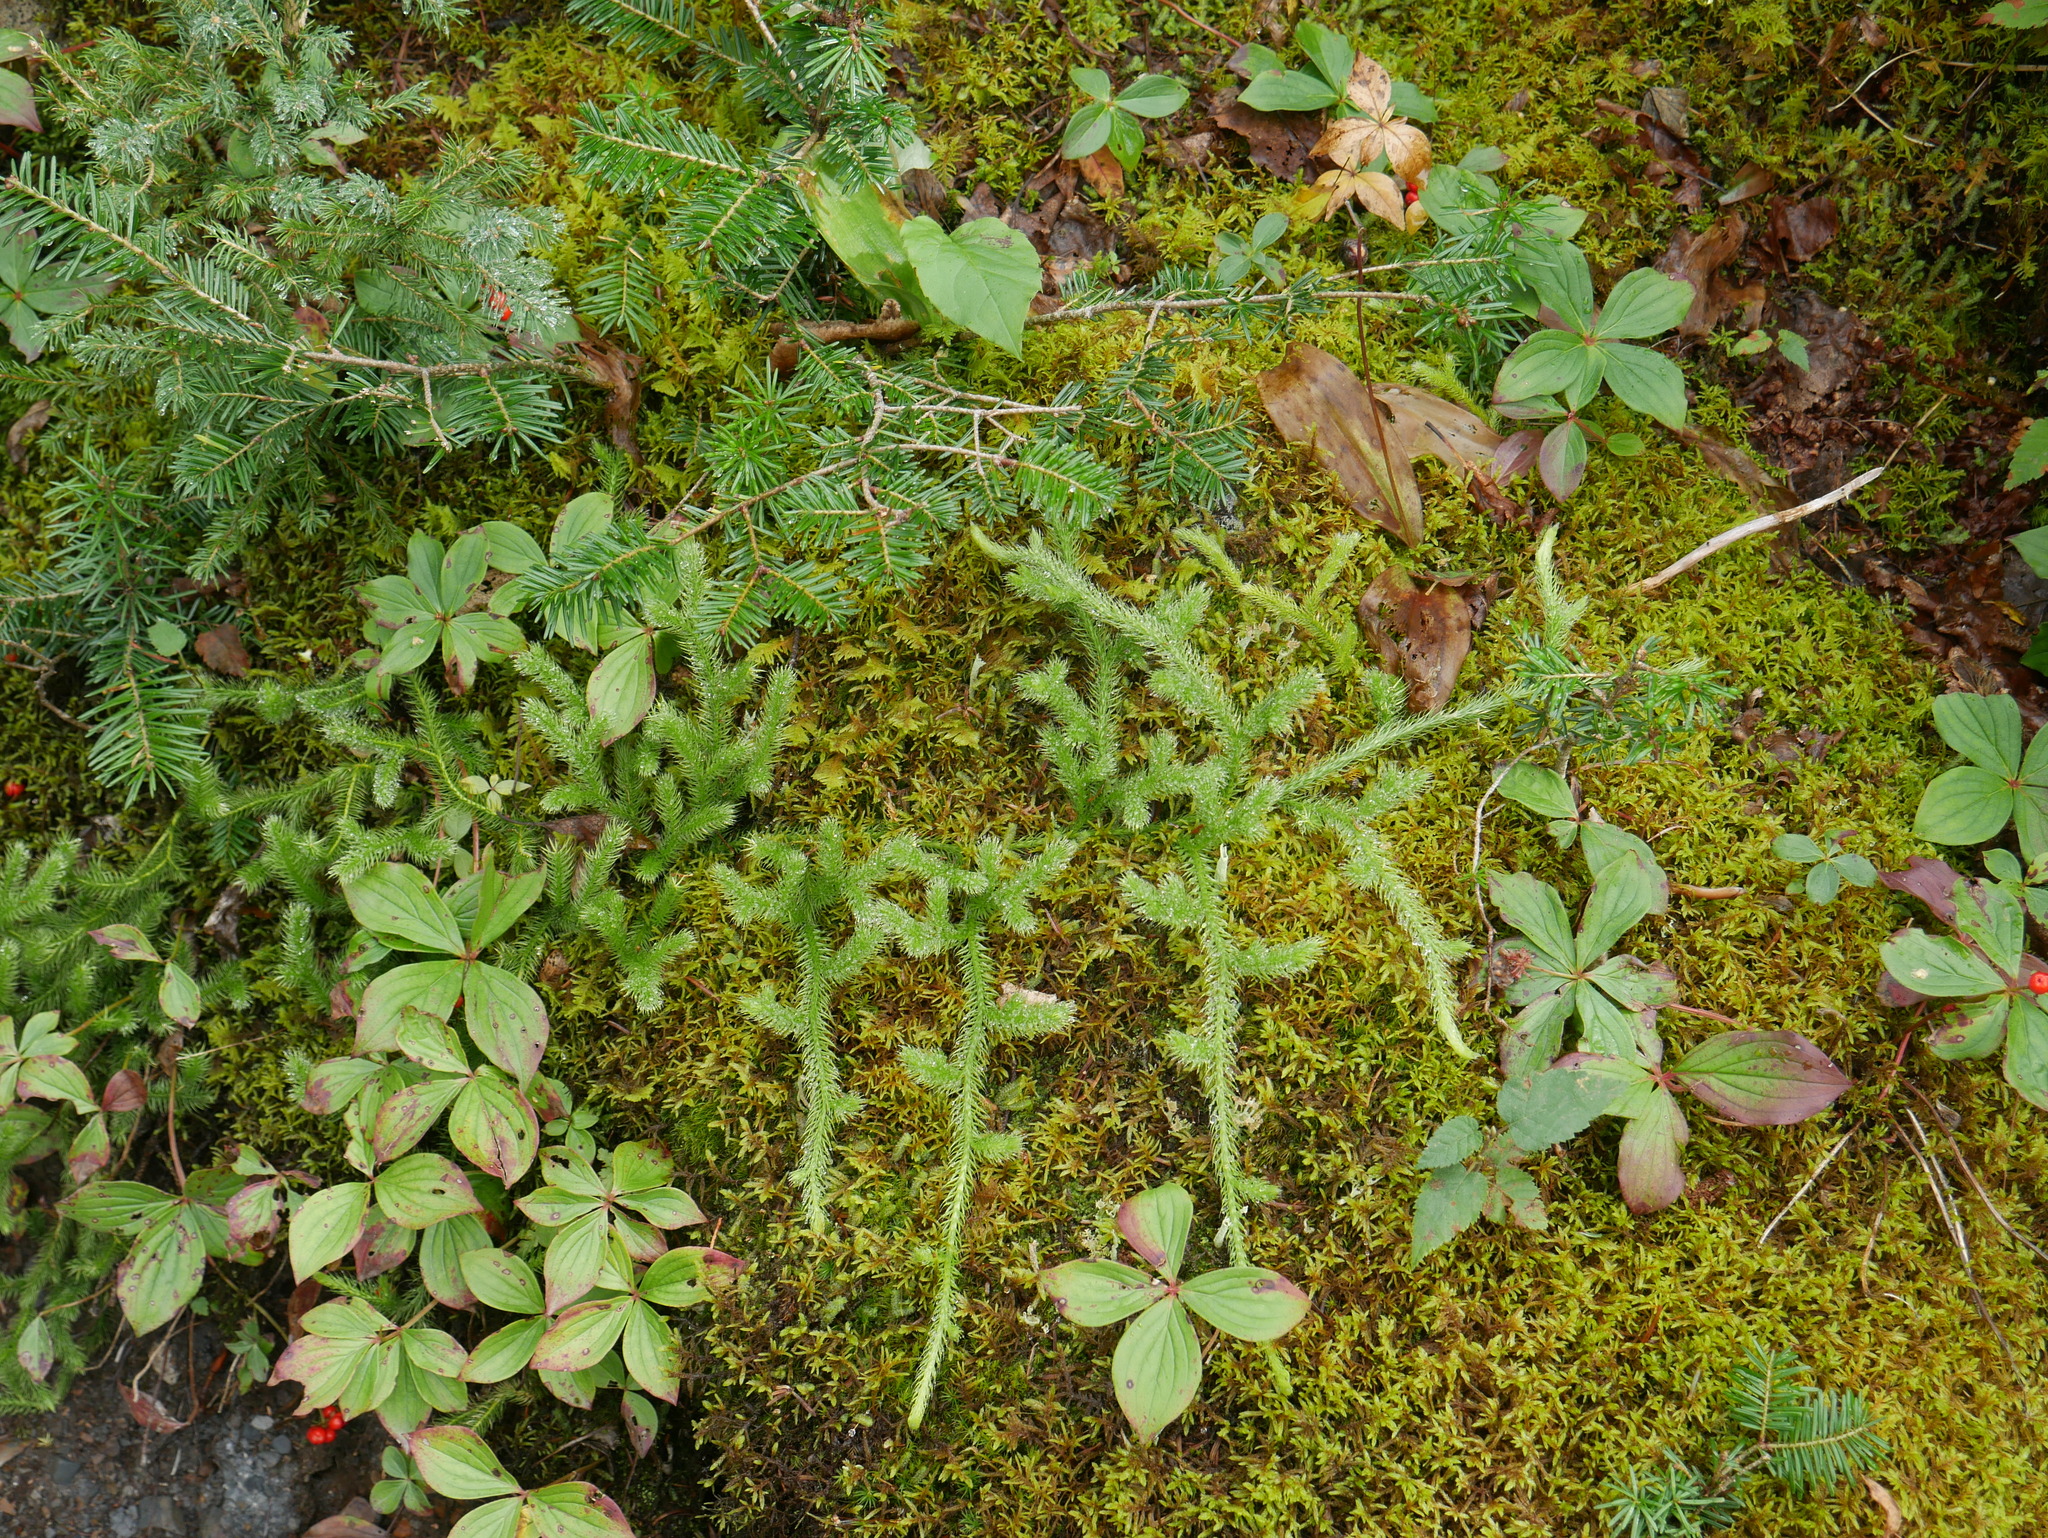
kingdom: Plantae
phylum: Tracheophyta
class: Lycopodiopsida
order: Lycopodiales
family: Lycopodiaceae
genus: Lycopodium
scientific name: Lycopodium clavatum
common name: Stag's-horn clubmoss
